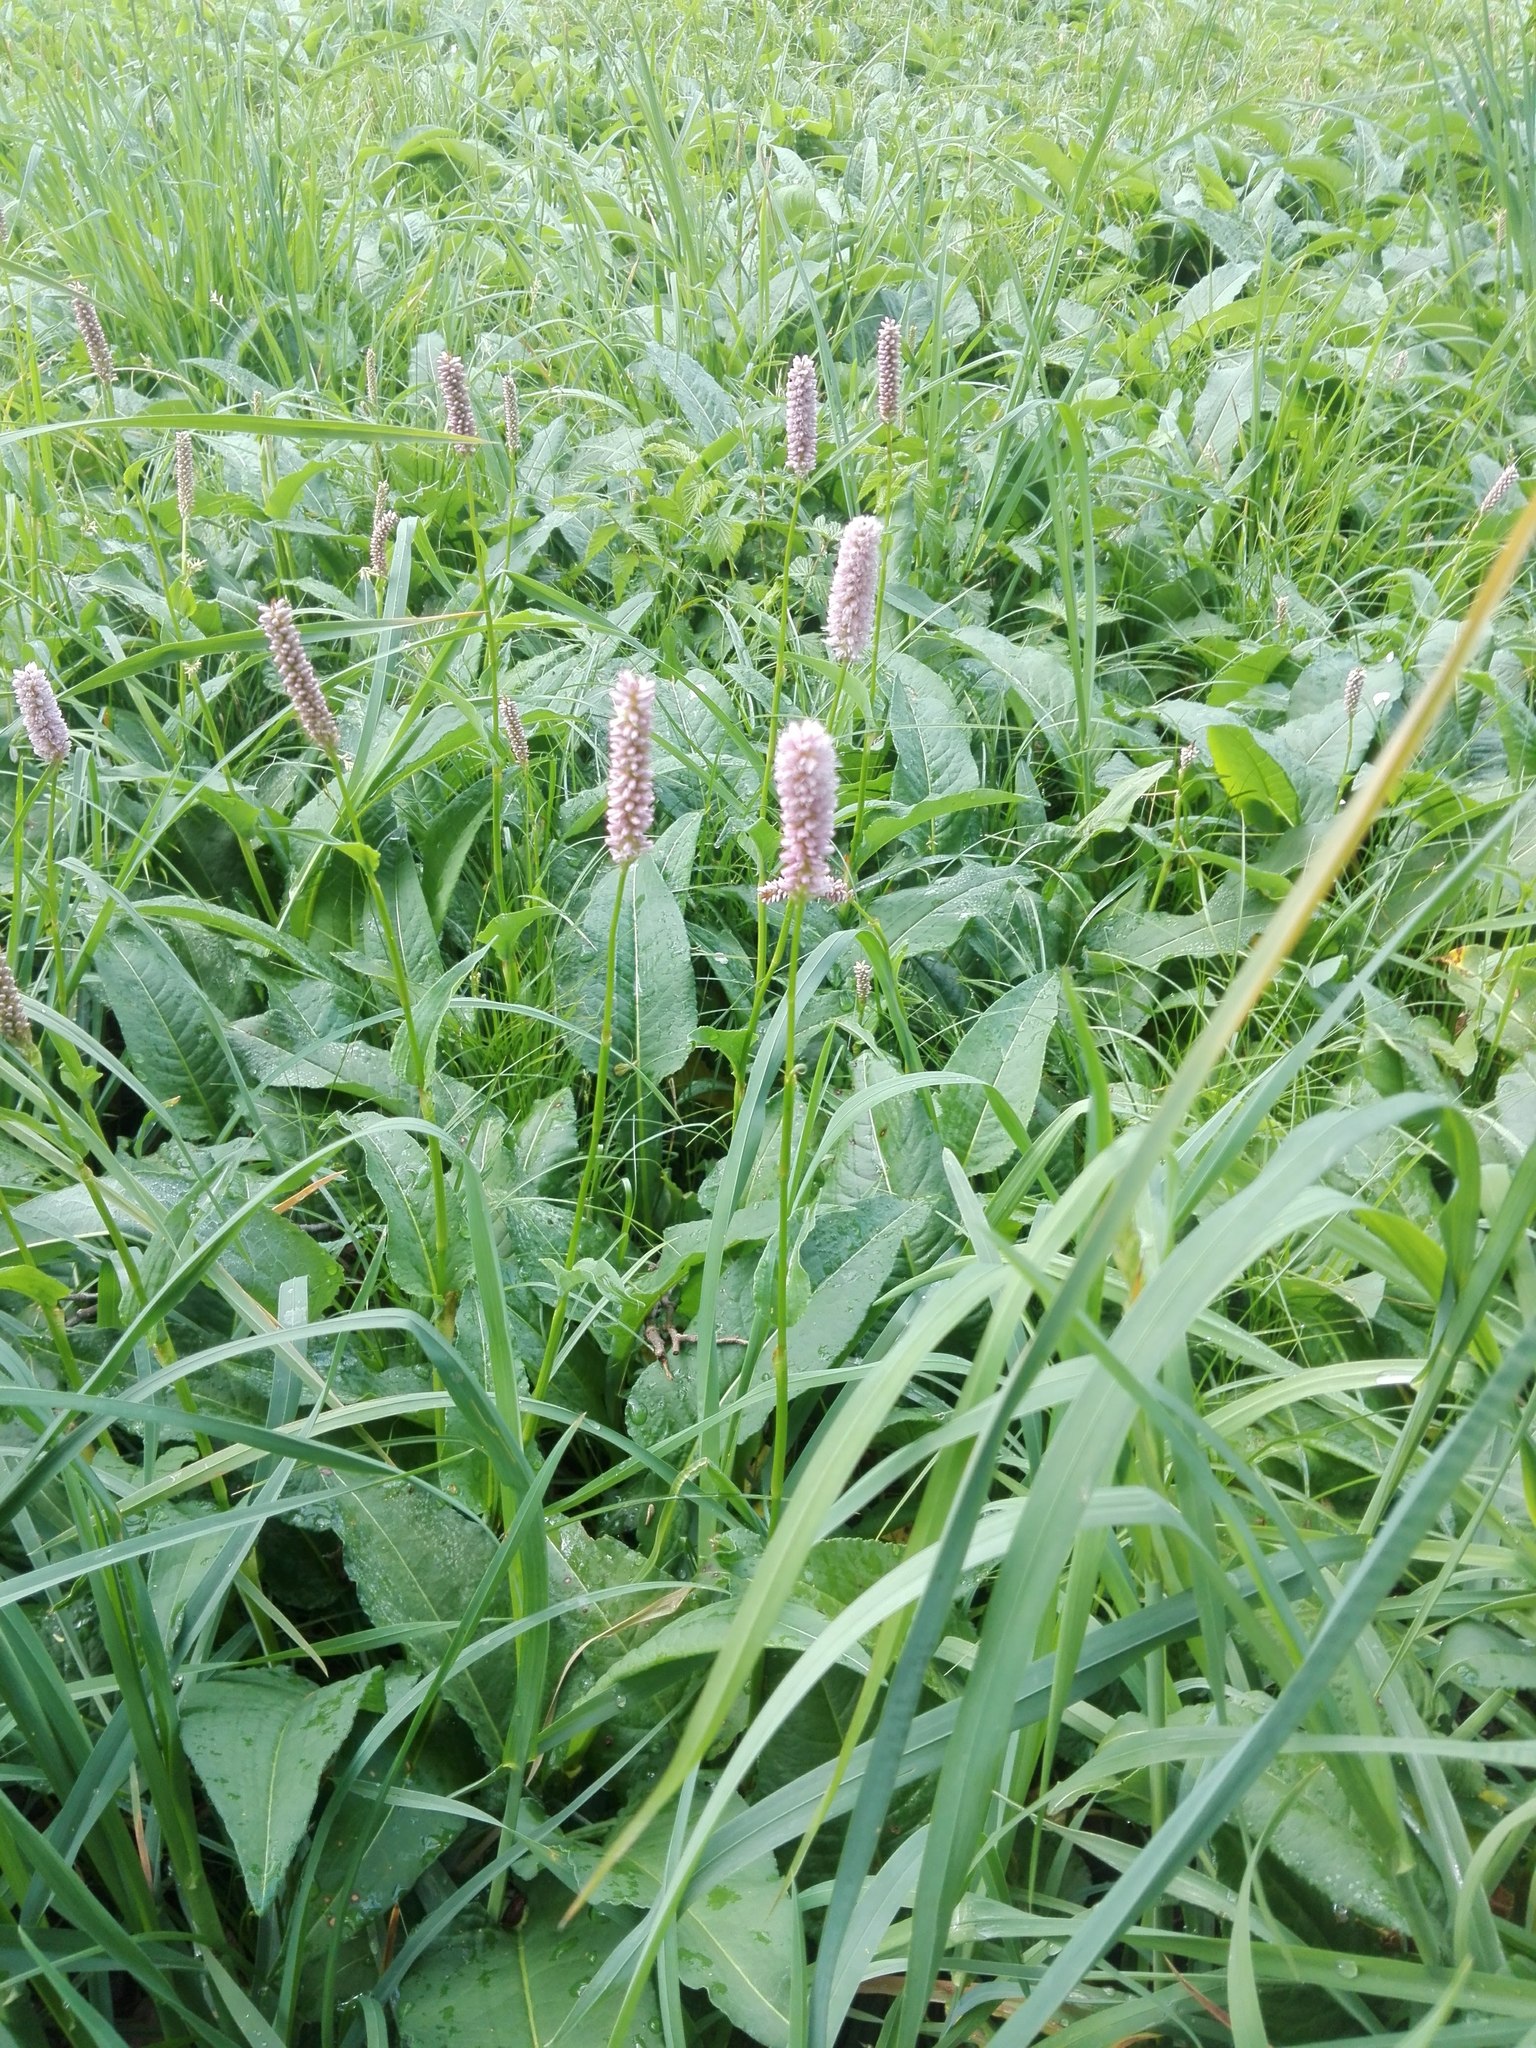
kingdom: Plantae
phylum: Tracheophyta
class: Magnoliopsida
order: Caryophyllales
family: Polygonaceae
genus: Bistorta
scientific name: Bistorta officinalis
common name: Common bistort
